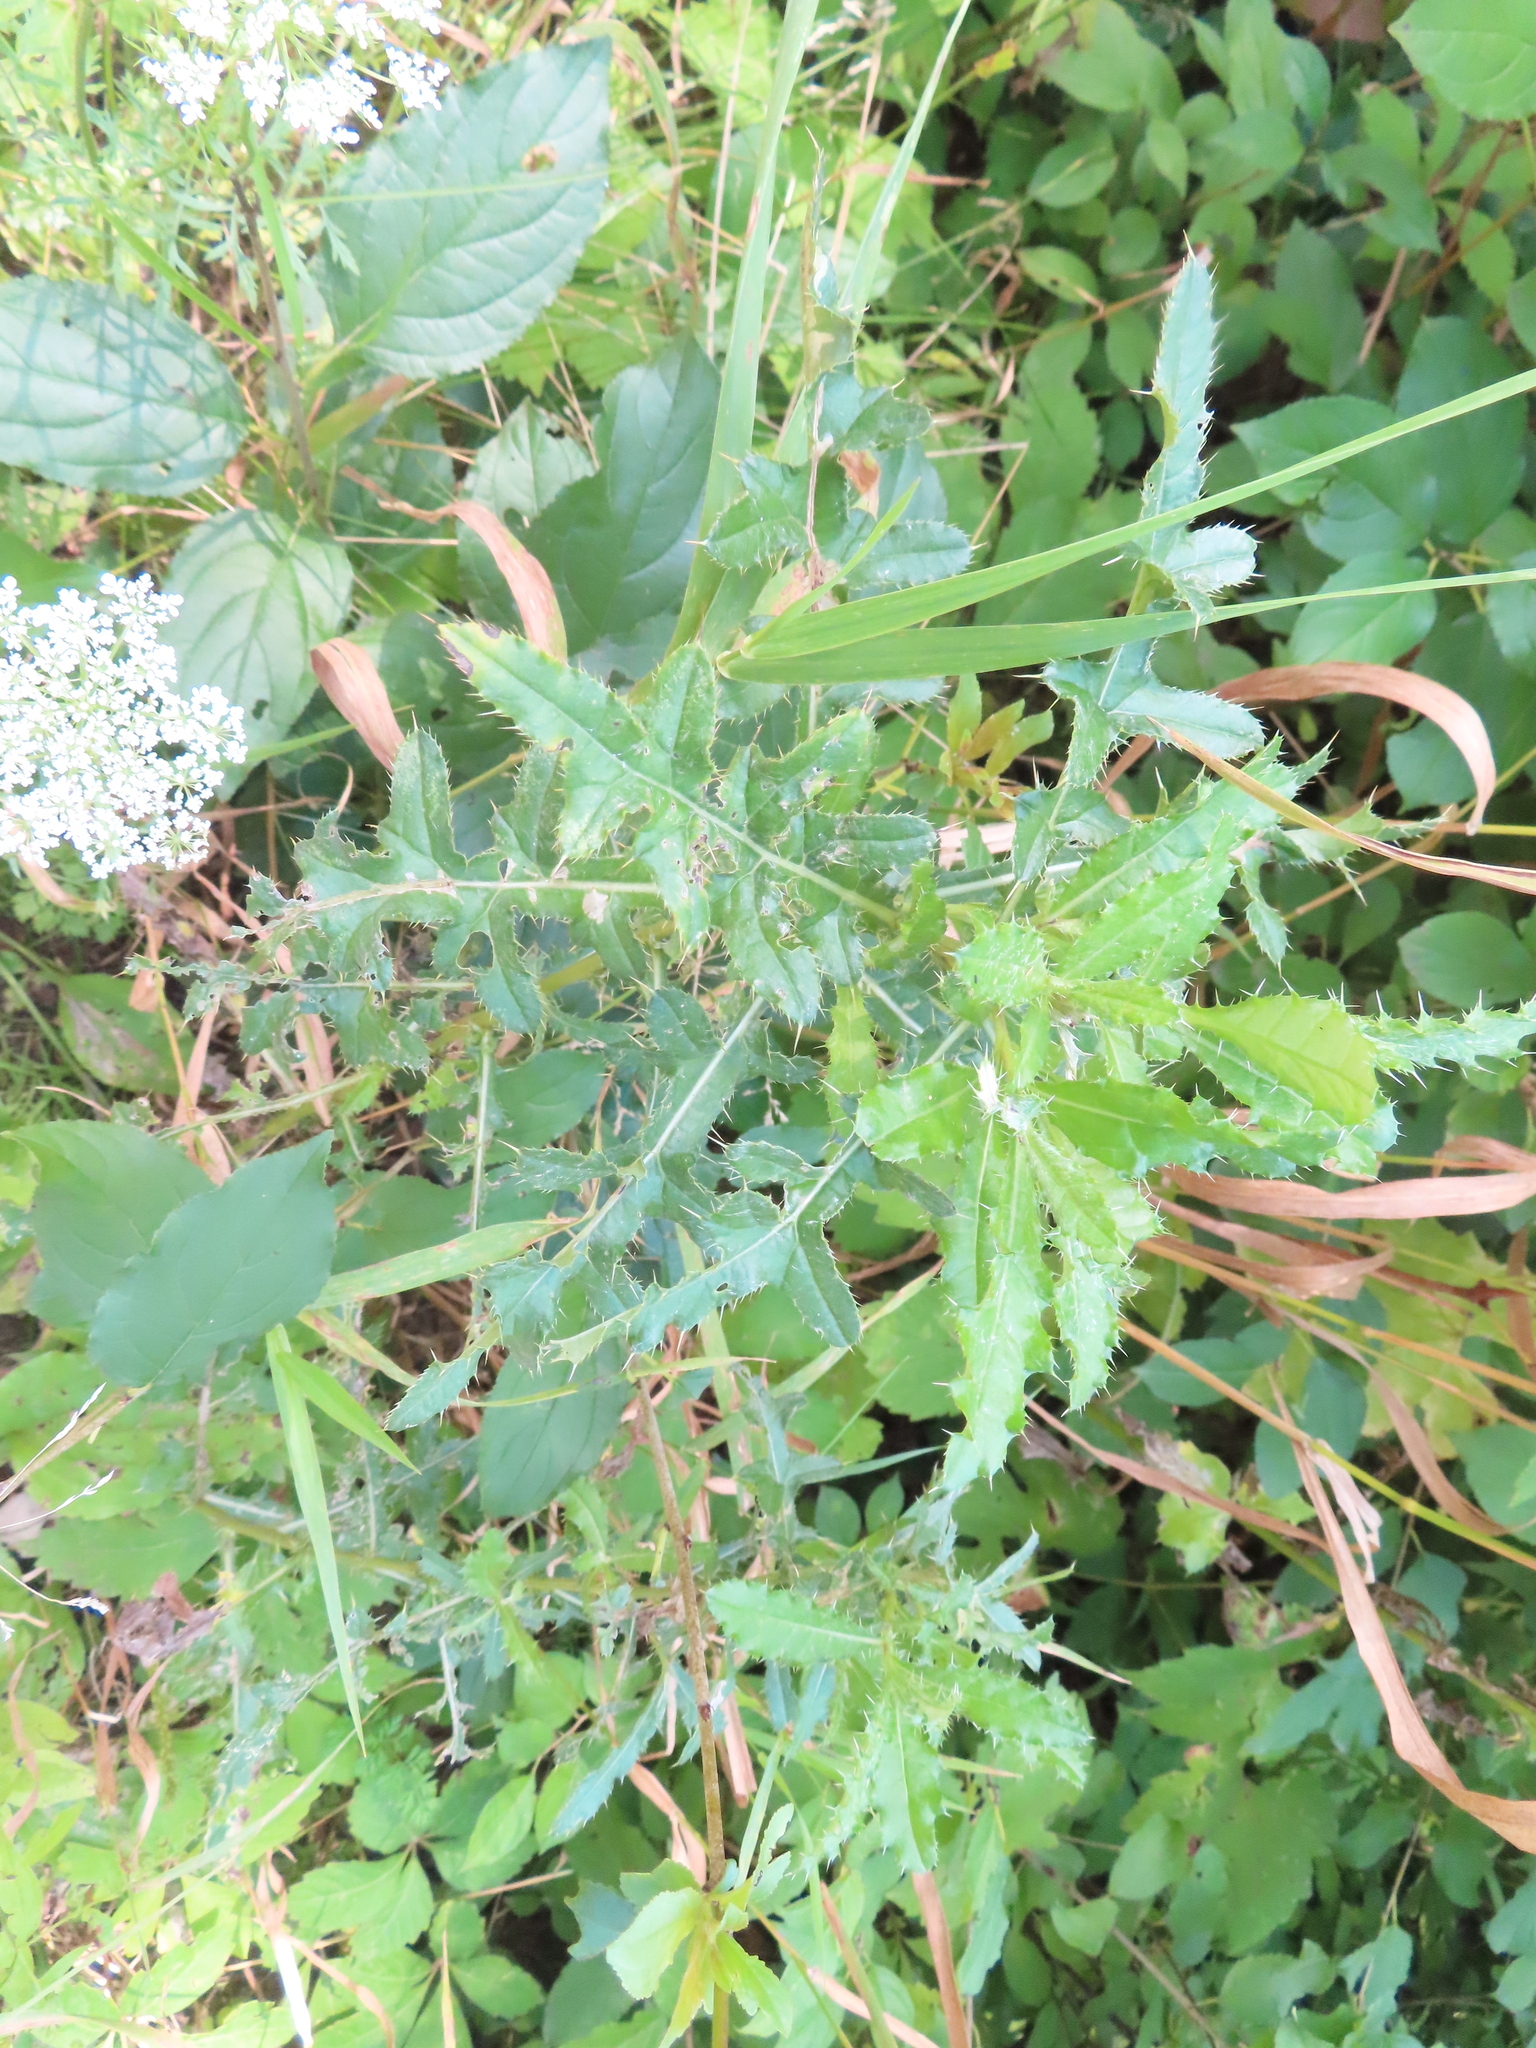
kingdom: Plantae
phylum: Tracheophyta
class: Magnoliopsida
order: Asterales
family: Asteraceae
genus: Cirsium
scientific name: Cirsium arvense
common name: Creeping thistle
